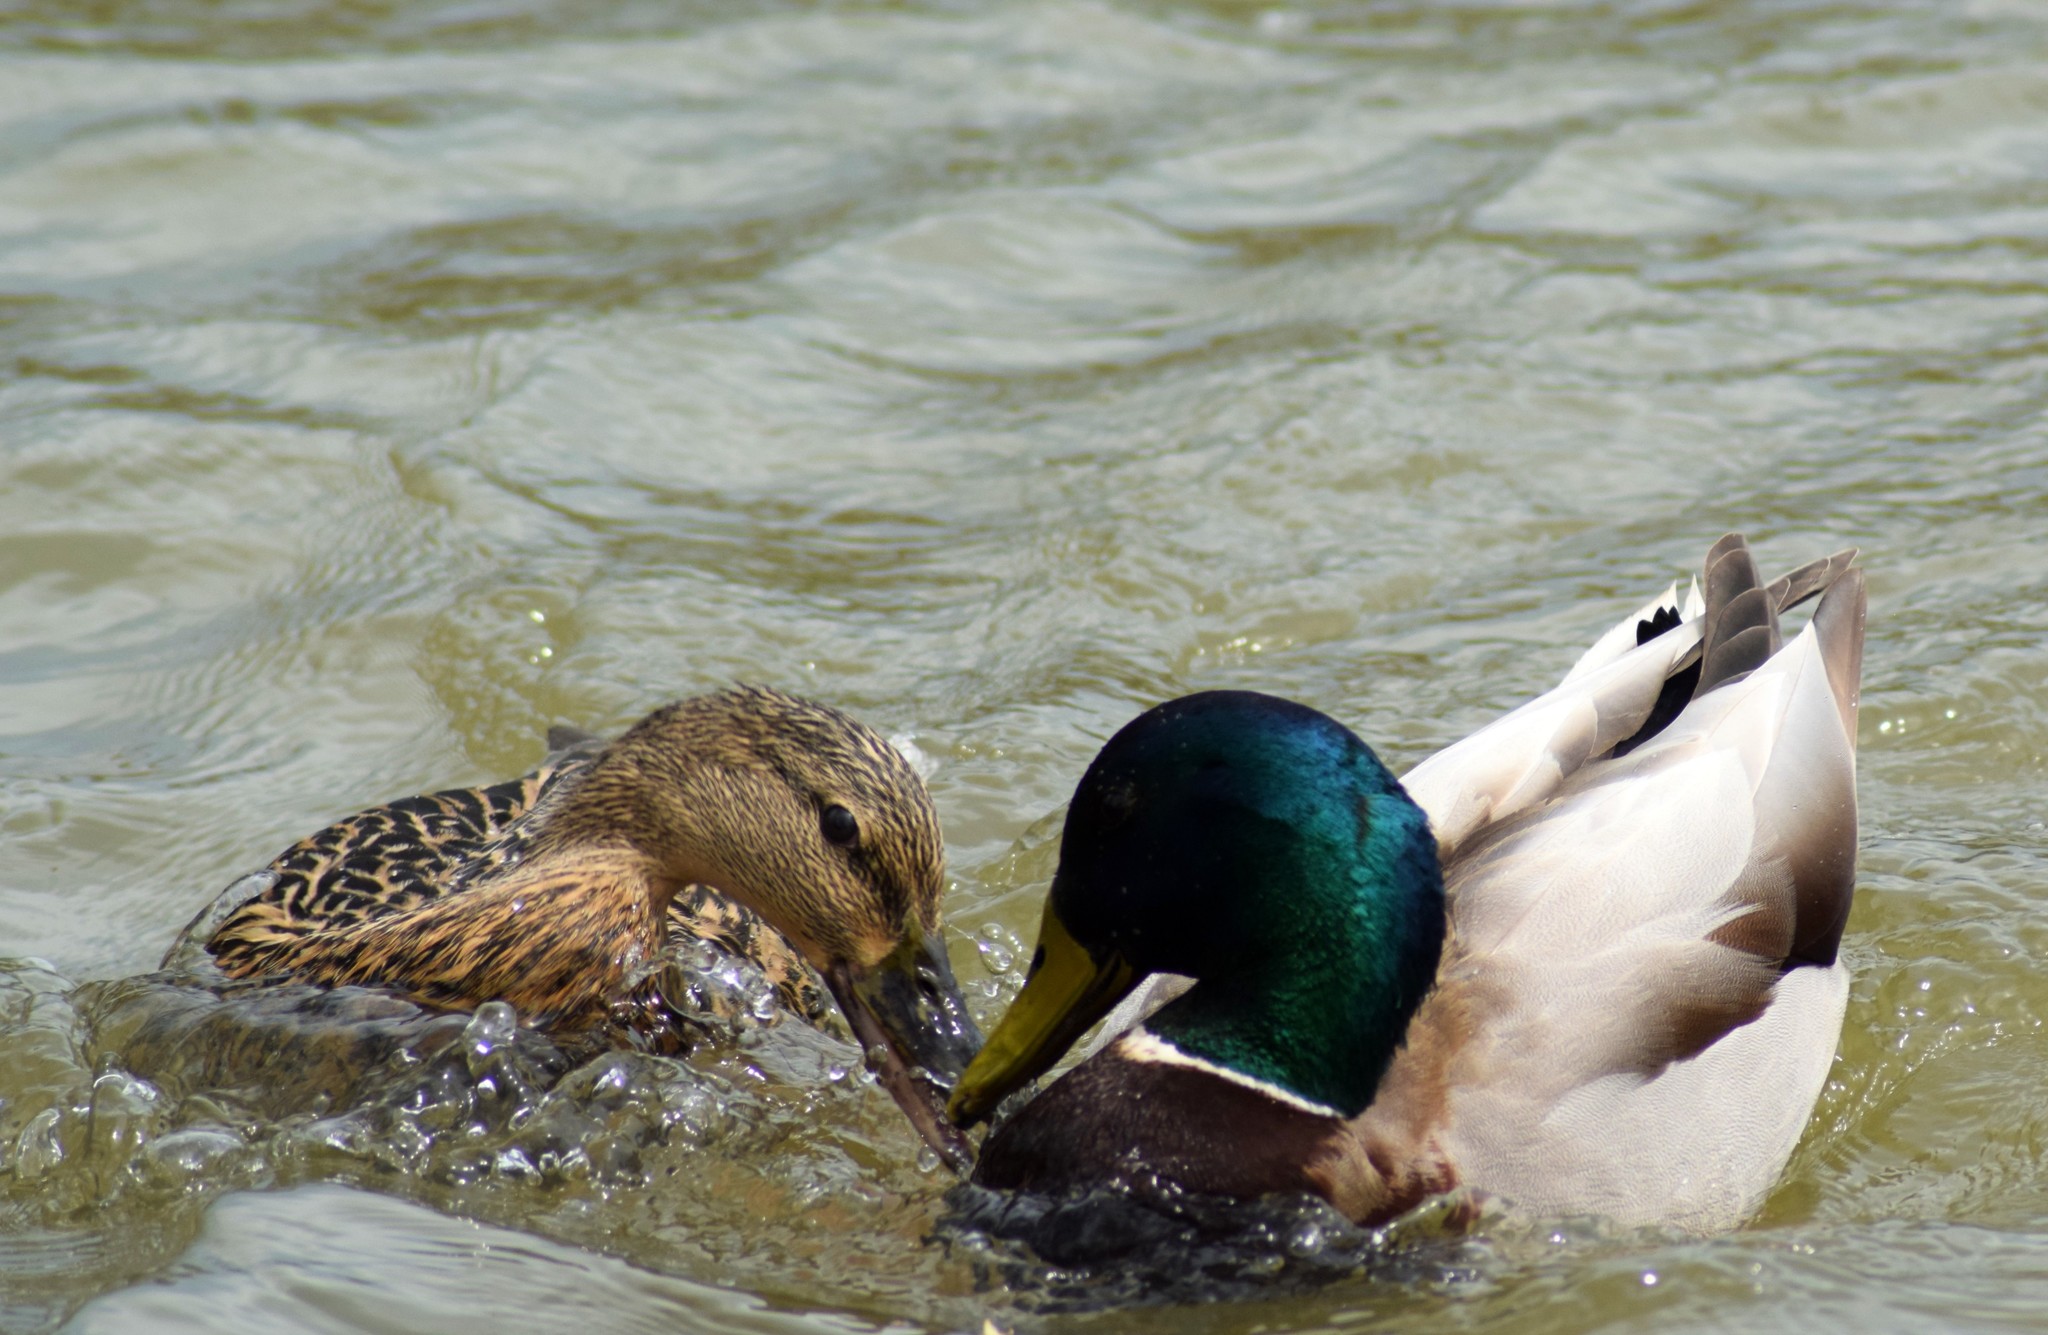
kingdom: Animalia
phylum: Chordata
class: Aves
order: Anseriformes
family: Anatidae
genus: Anas
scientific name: Anas platyrhynchos
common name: Mallard
